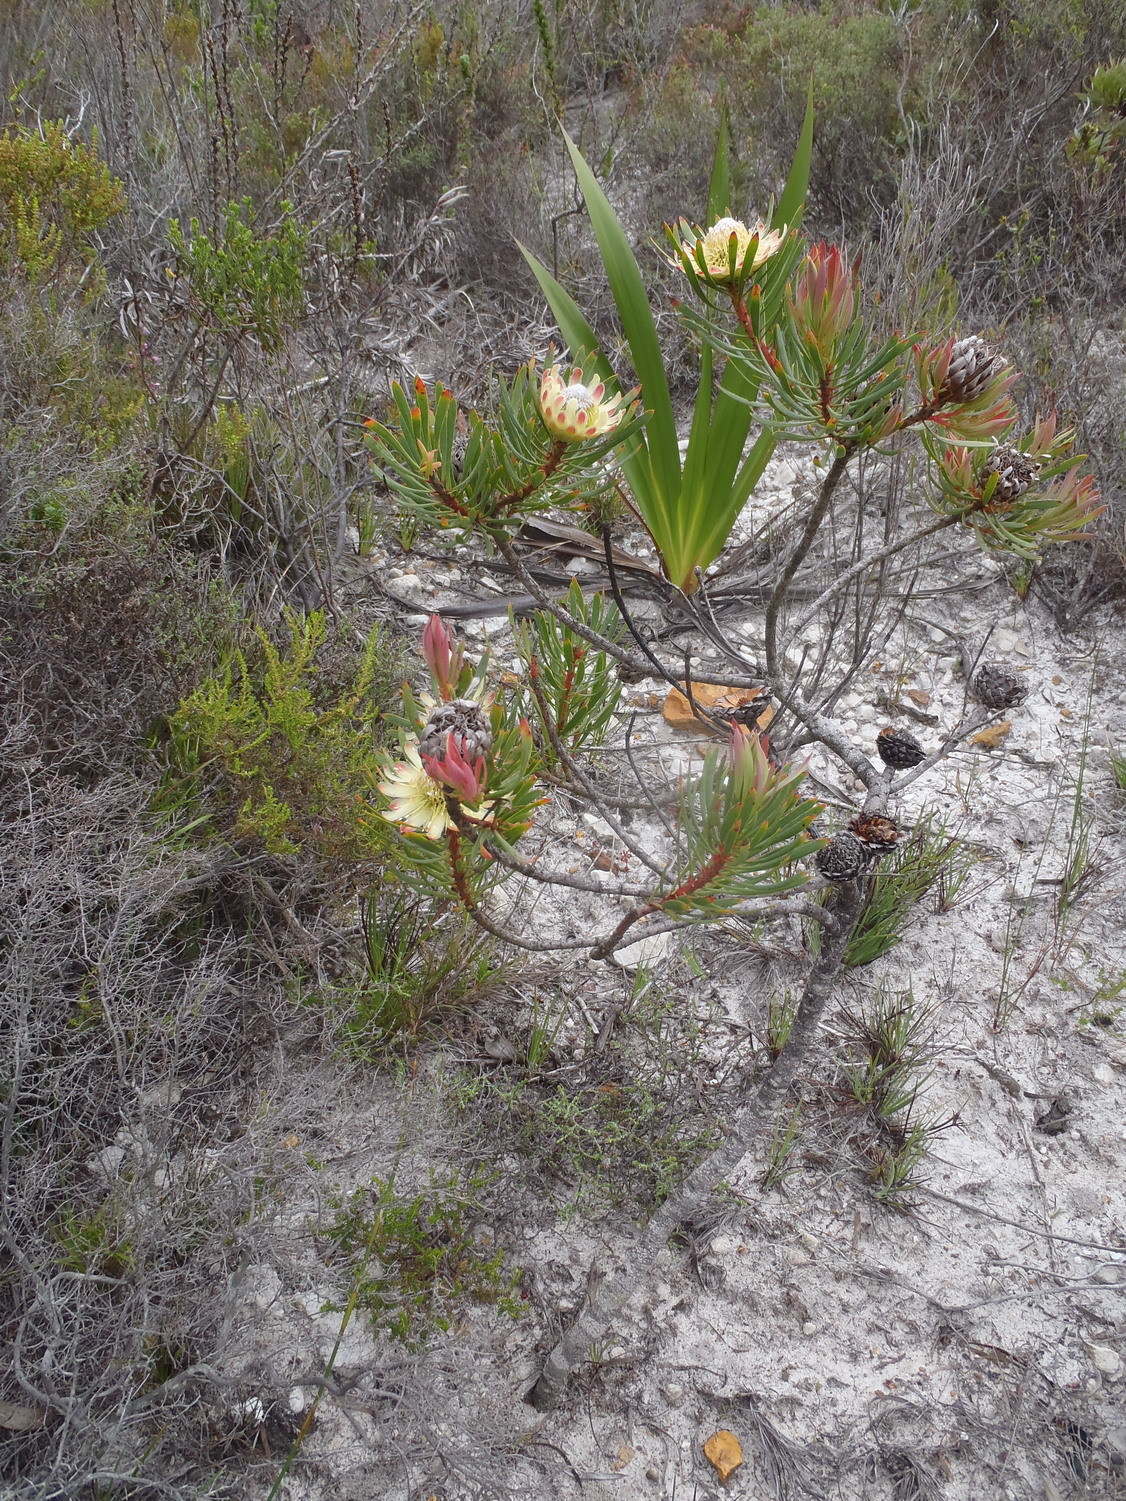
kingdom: Plantae
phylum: Tracheophyta
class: Magnoliopsida
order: Proteales
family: Proteaceae
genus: Protea
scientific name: Protea scolymocephala
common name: Thistle sugarbush
